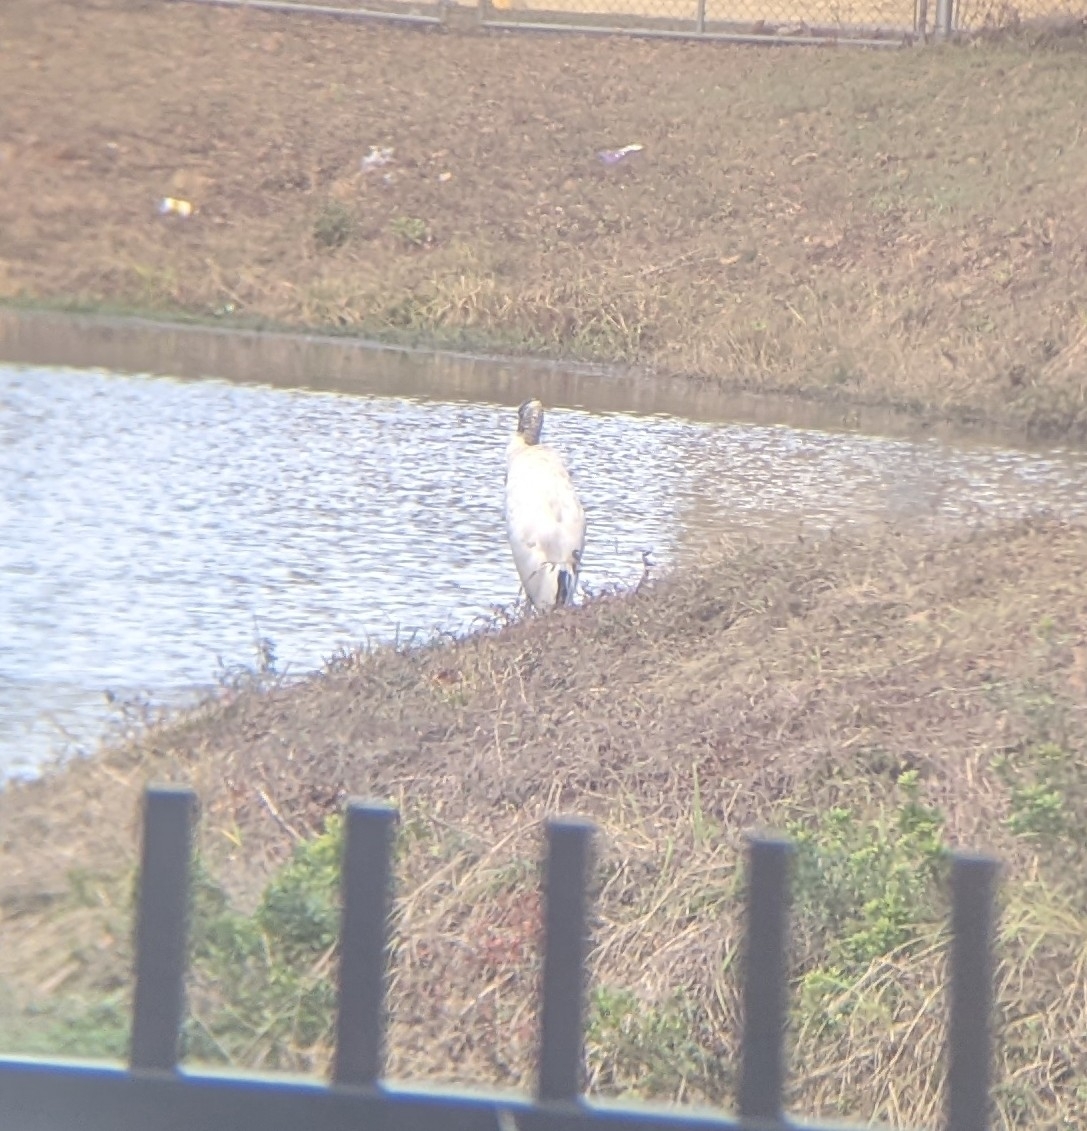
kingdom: Animalia
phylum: Chordata
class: Aves
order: Ciconiiformes
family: Ciconiidae
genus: Mycteria
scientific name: Mycteria americana
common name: Wood stork
